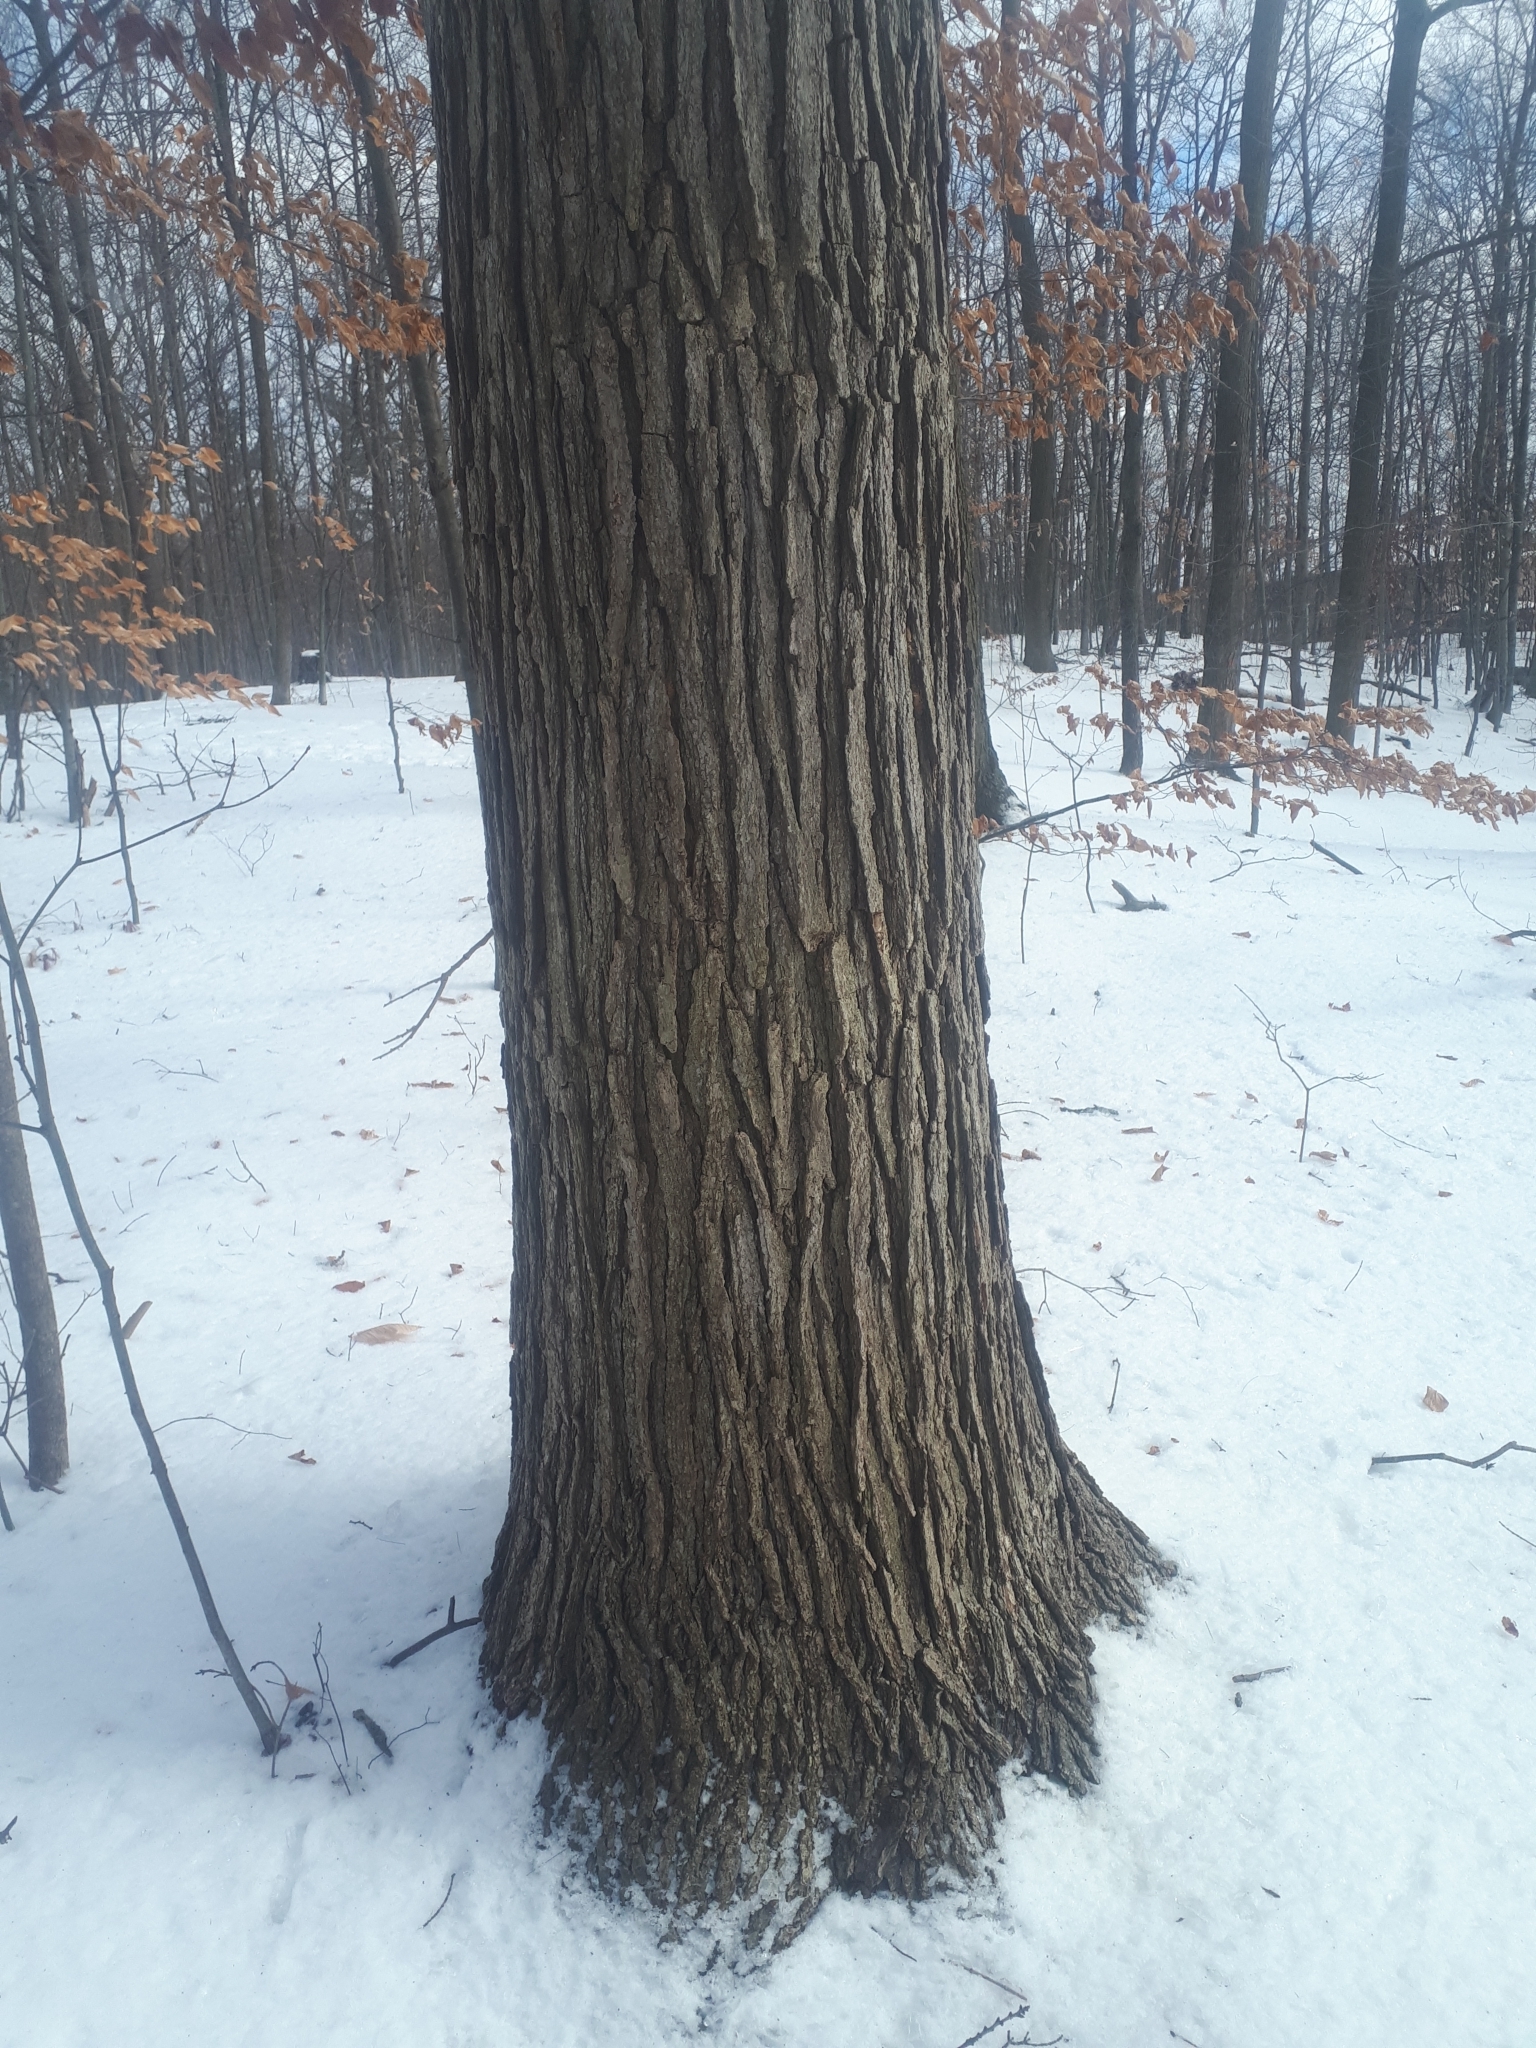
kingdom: Plantae
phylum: Tracheophyta
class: Magnoliopsida
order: Fagales
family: Fagaceae
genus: Quercus
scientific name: Quercus macrocarpa
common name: Bur oak
